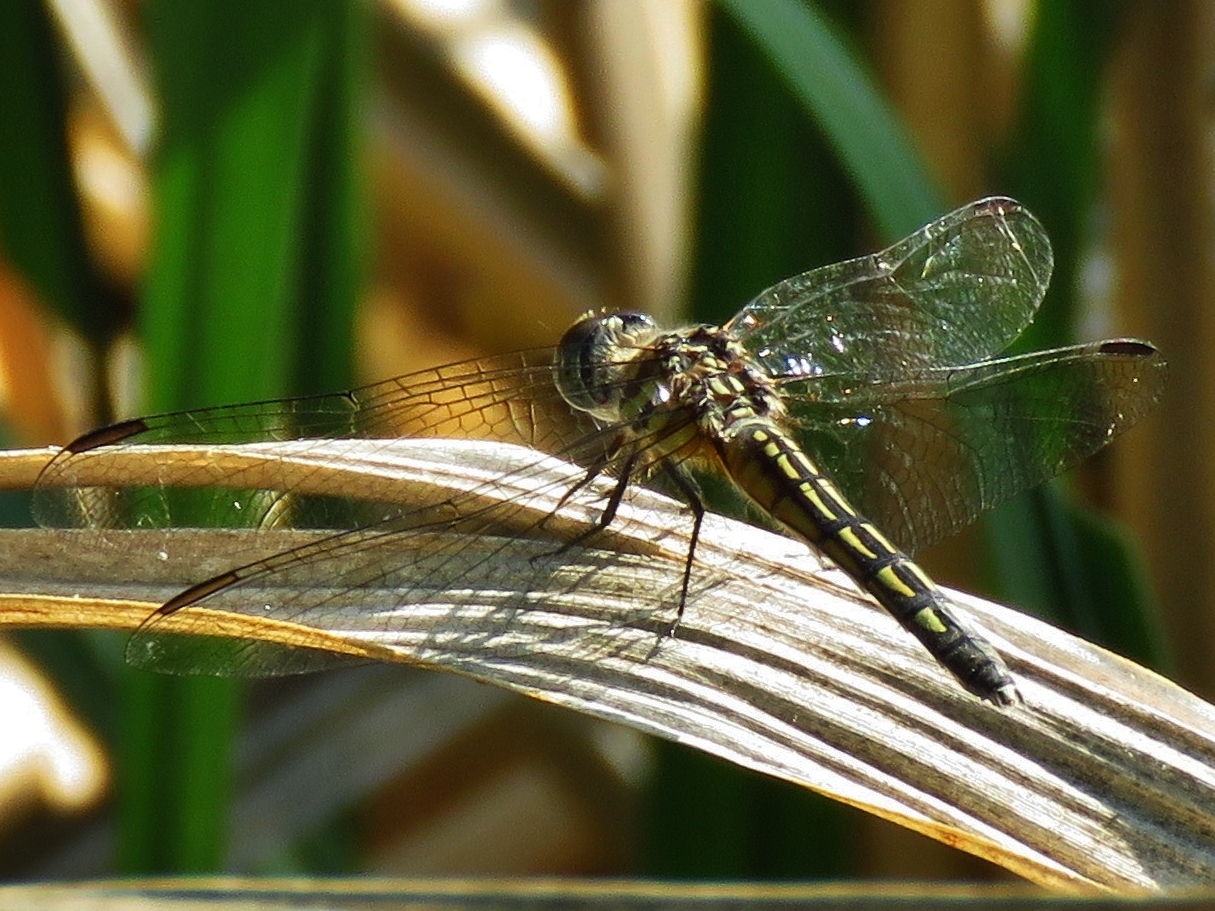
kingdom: Animalia
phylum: Arthropoda
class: Insecta
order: Odonata
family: Libellulidae
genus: Pachydiplax
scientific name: Pachydiplax longipennis
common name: Blue dasher
